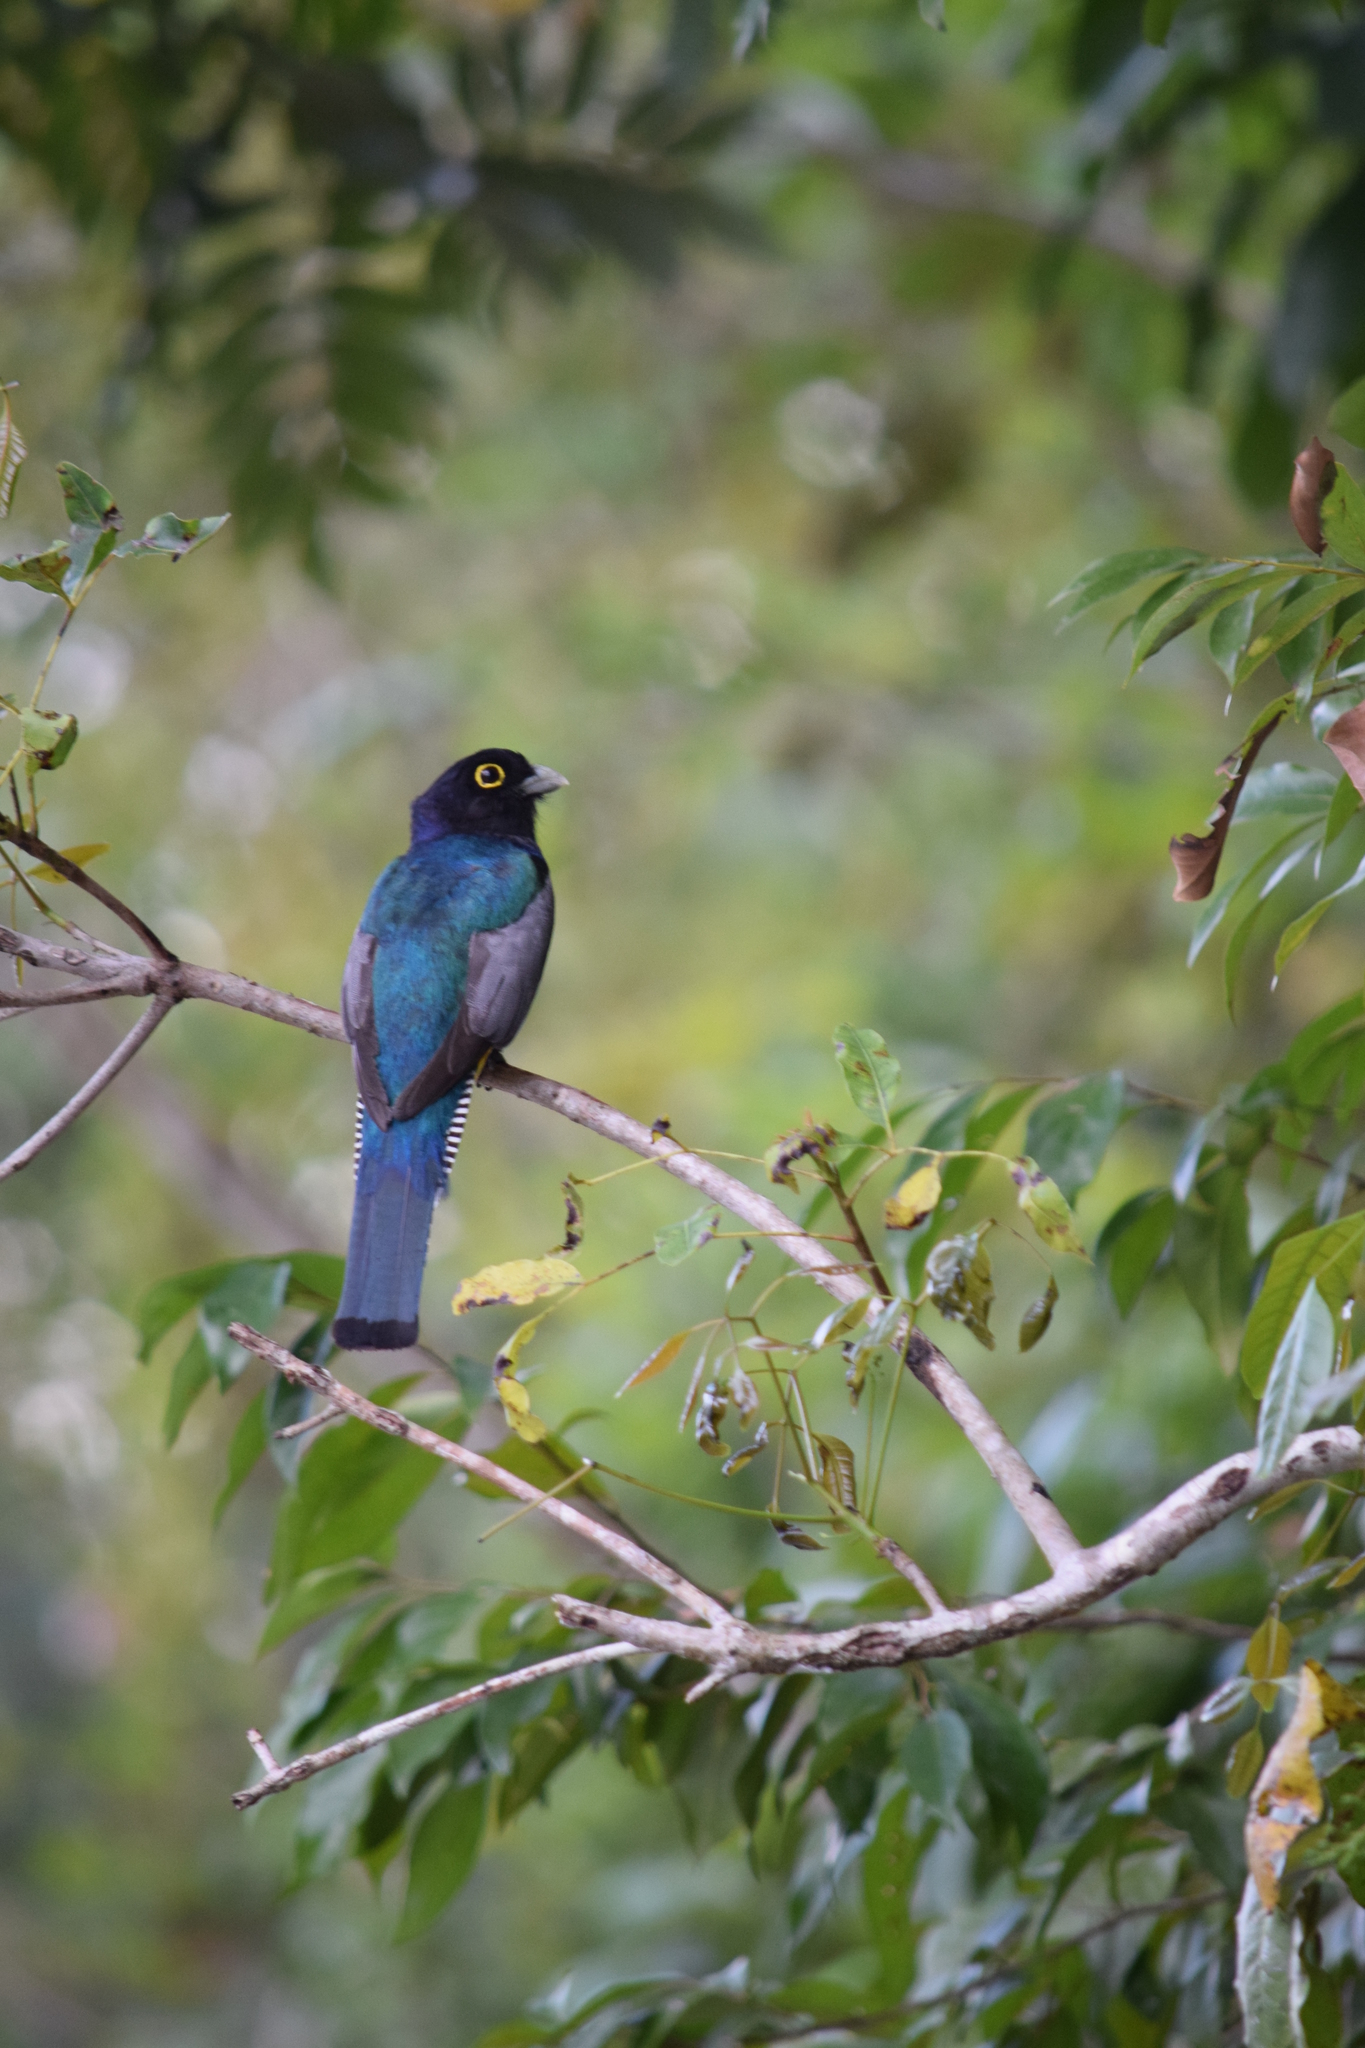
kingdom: Animalia
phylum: Chordata
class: Aves
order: Trogoniformes
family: Trogonidae
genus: Trogon
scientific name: Trogon caligatus
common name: Gartered trogon
